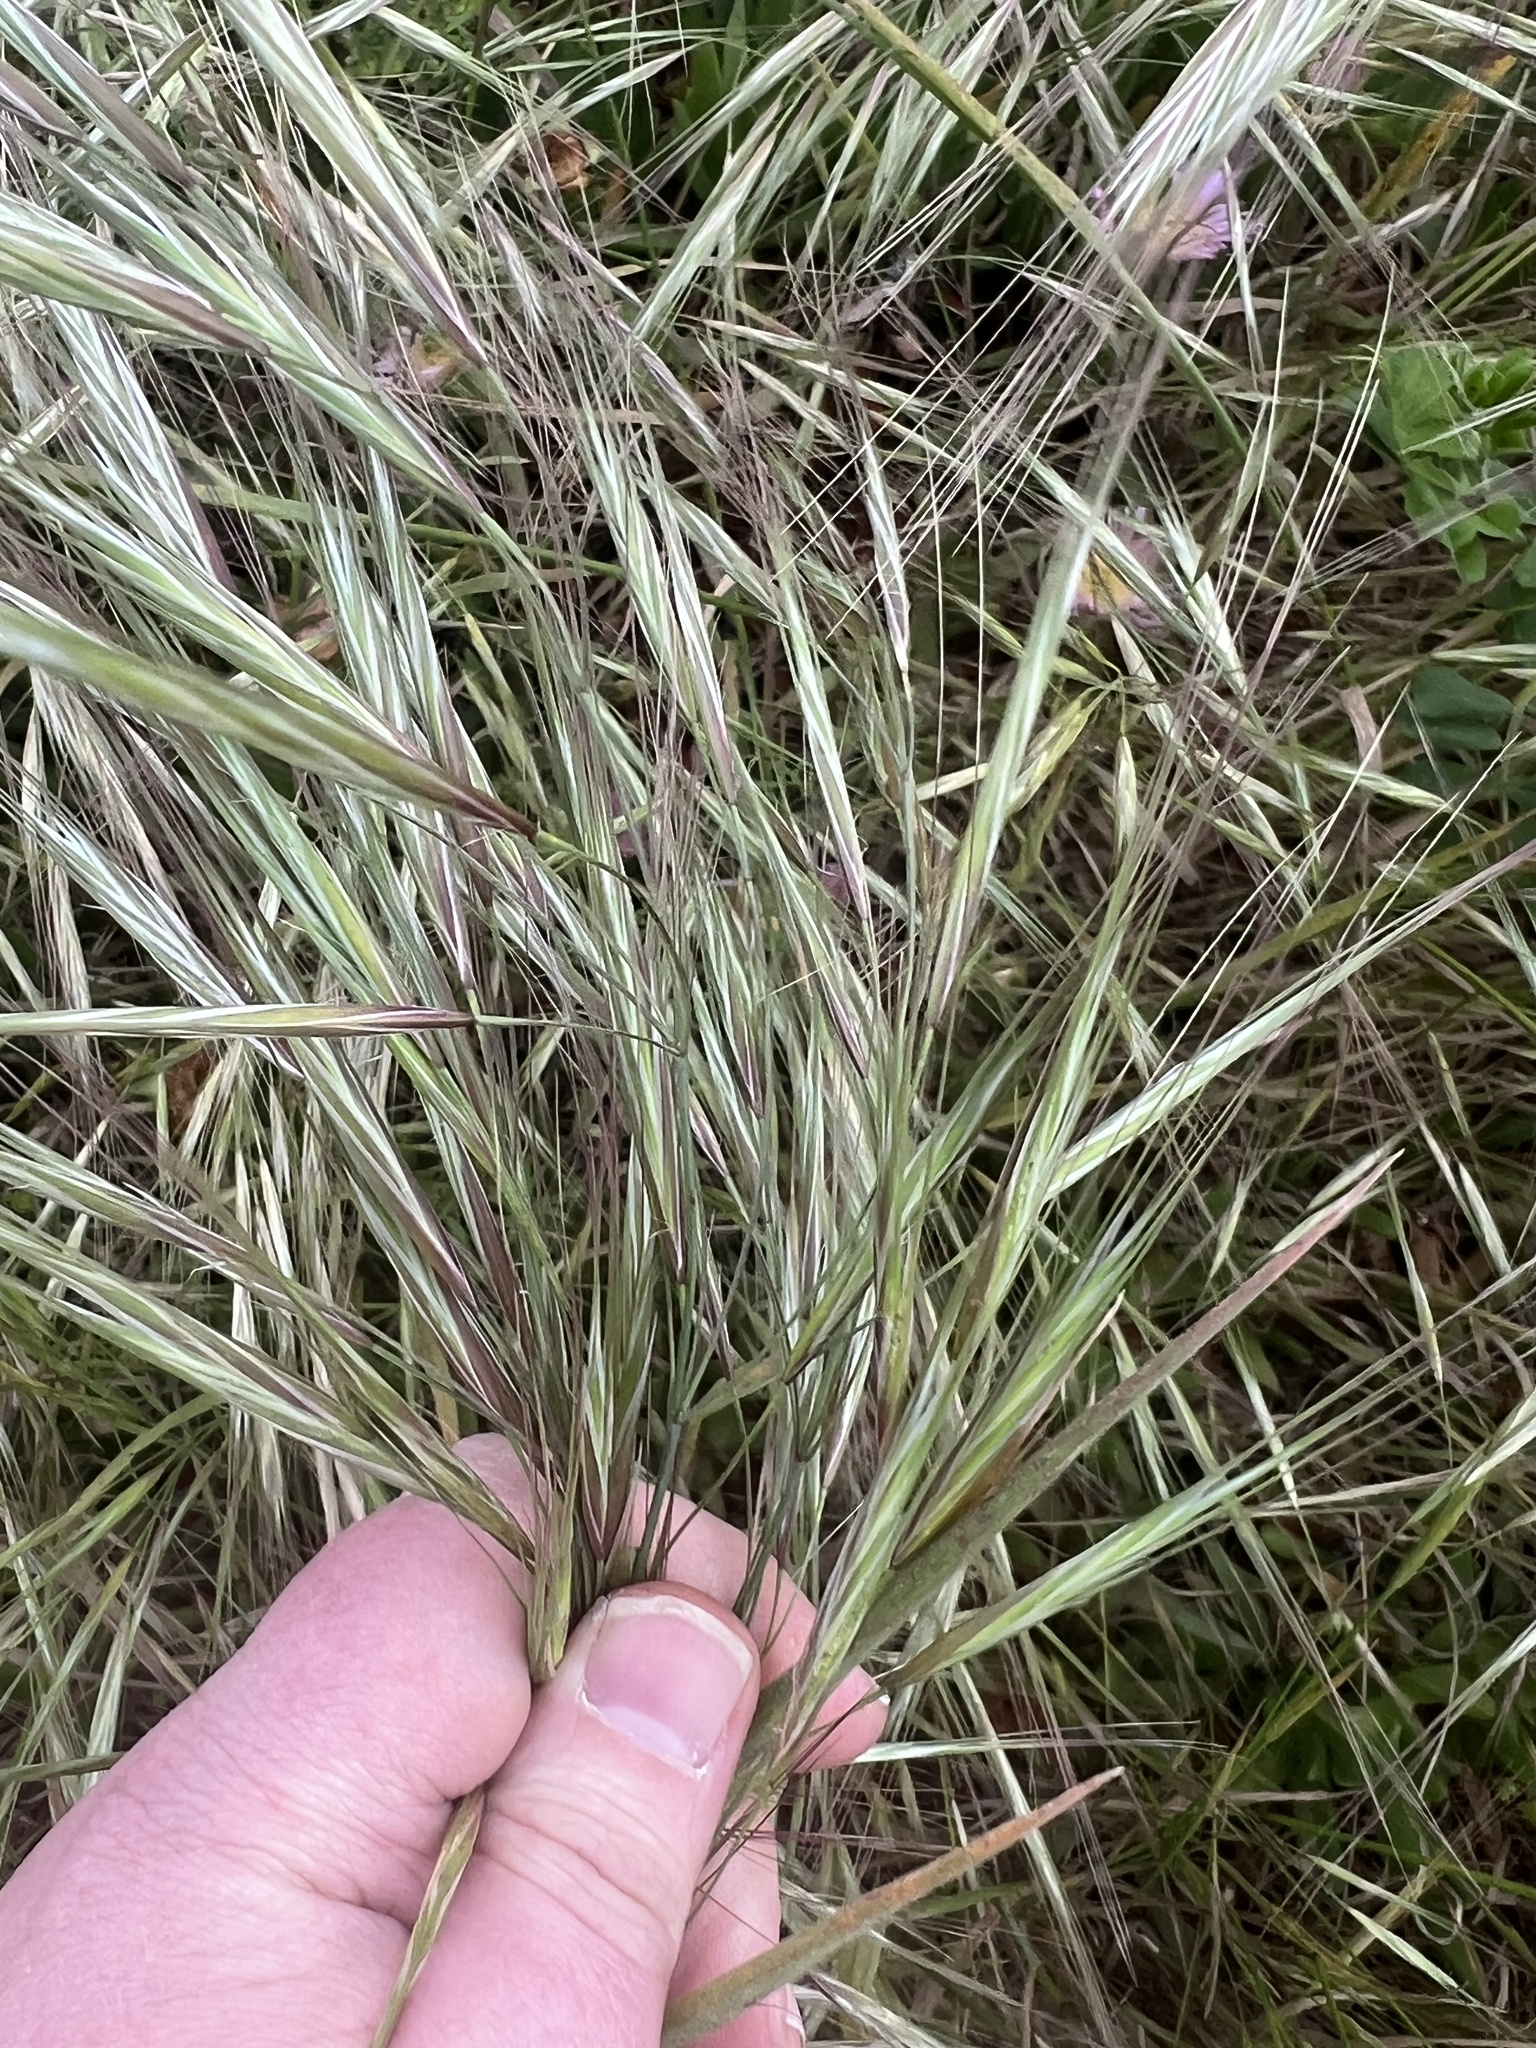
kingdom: Plantae
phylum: Tracheophyta
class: Liliopsida
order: Poales
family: Poaceae
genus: Bromus
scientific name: Bromus diandrus
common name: Ripgut brome
